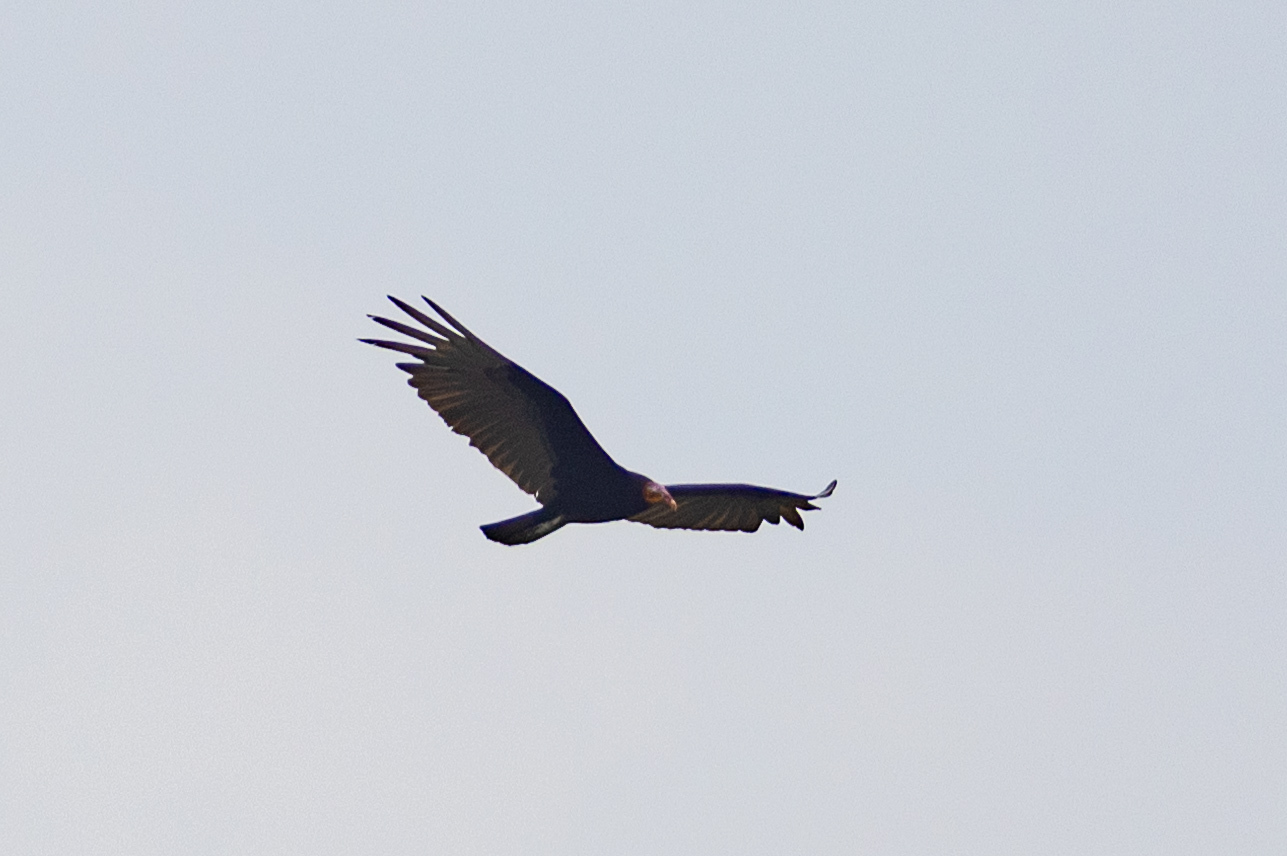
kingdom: Animalia
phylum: Chordata
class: Aves
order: Accipitriformes
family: Cathartidae
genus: Cathartes
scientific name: Cathartes burrovianus
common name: Lesser yellow-headed vulture
